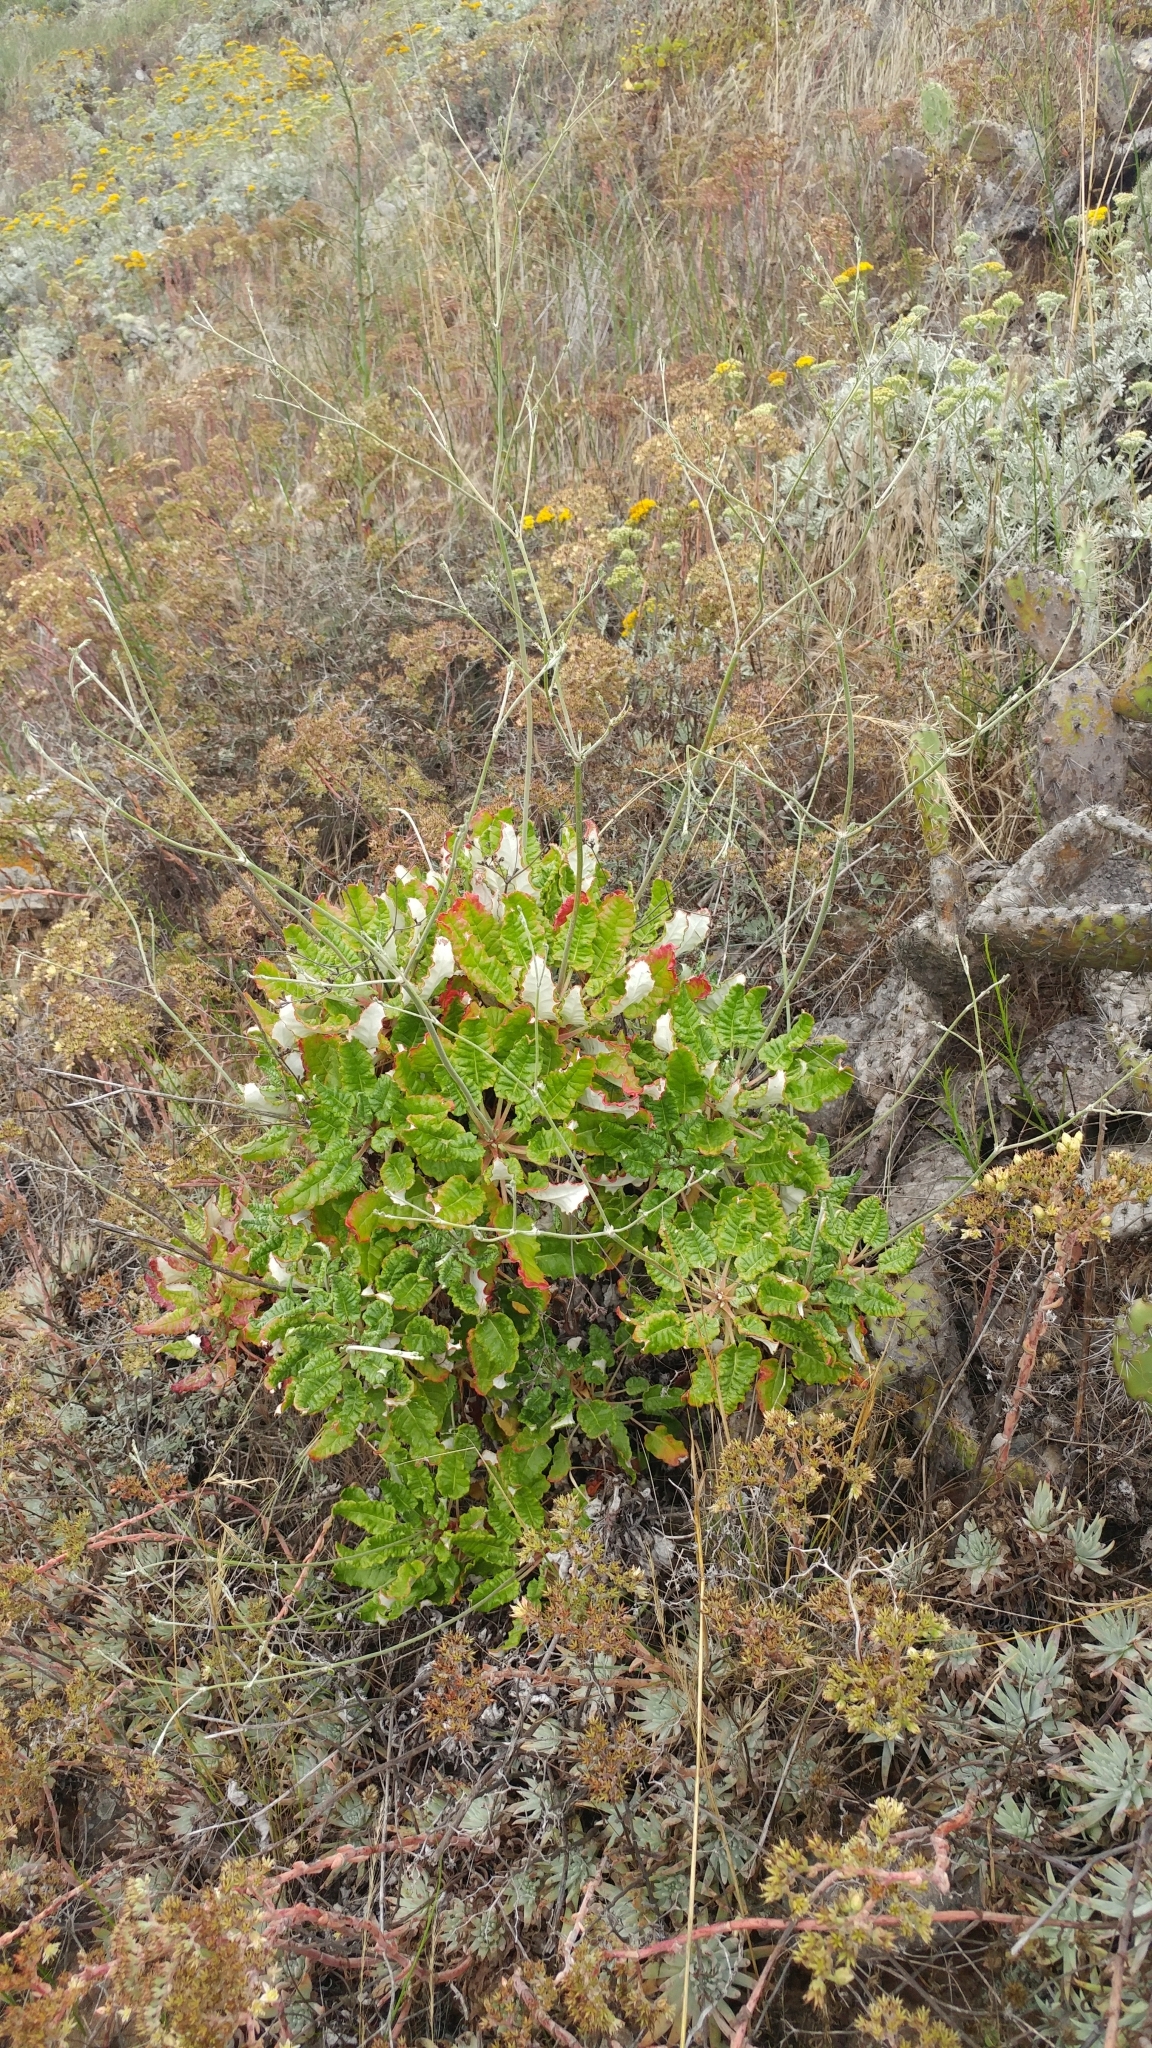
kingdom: Plantae
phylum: Tracheophyta
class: Magnoliopsida
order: Caryophyllales
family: Polygonaceae
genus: Eriogonum
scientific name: Eriogonum grande
